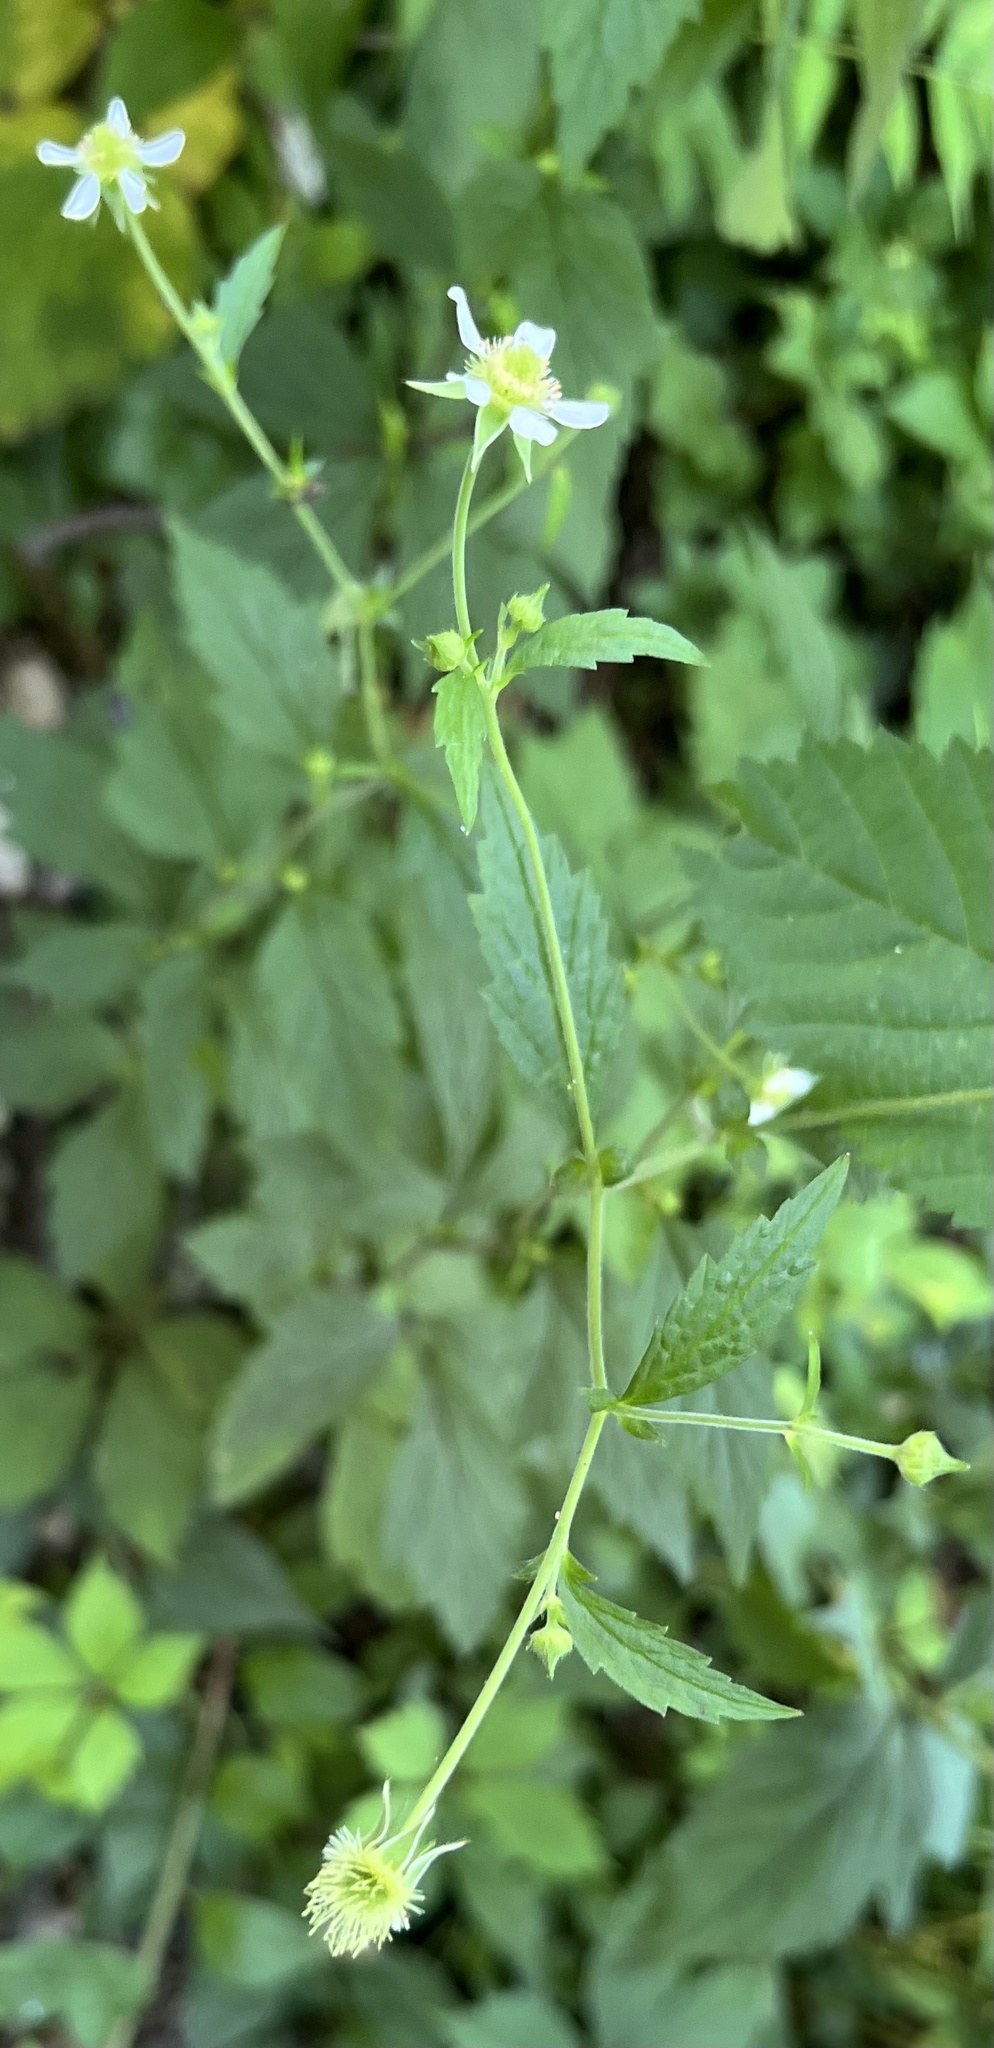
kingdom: Plantae
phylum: Tracheophyta
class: Magnoliopsida
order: Rosales
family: Rosaceae
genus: Geum
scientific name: Geum canadense
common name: White avens
